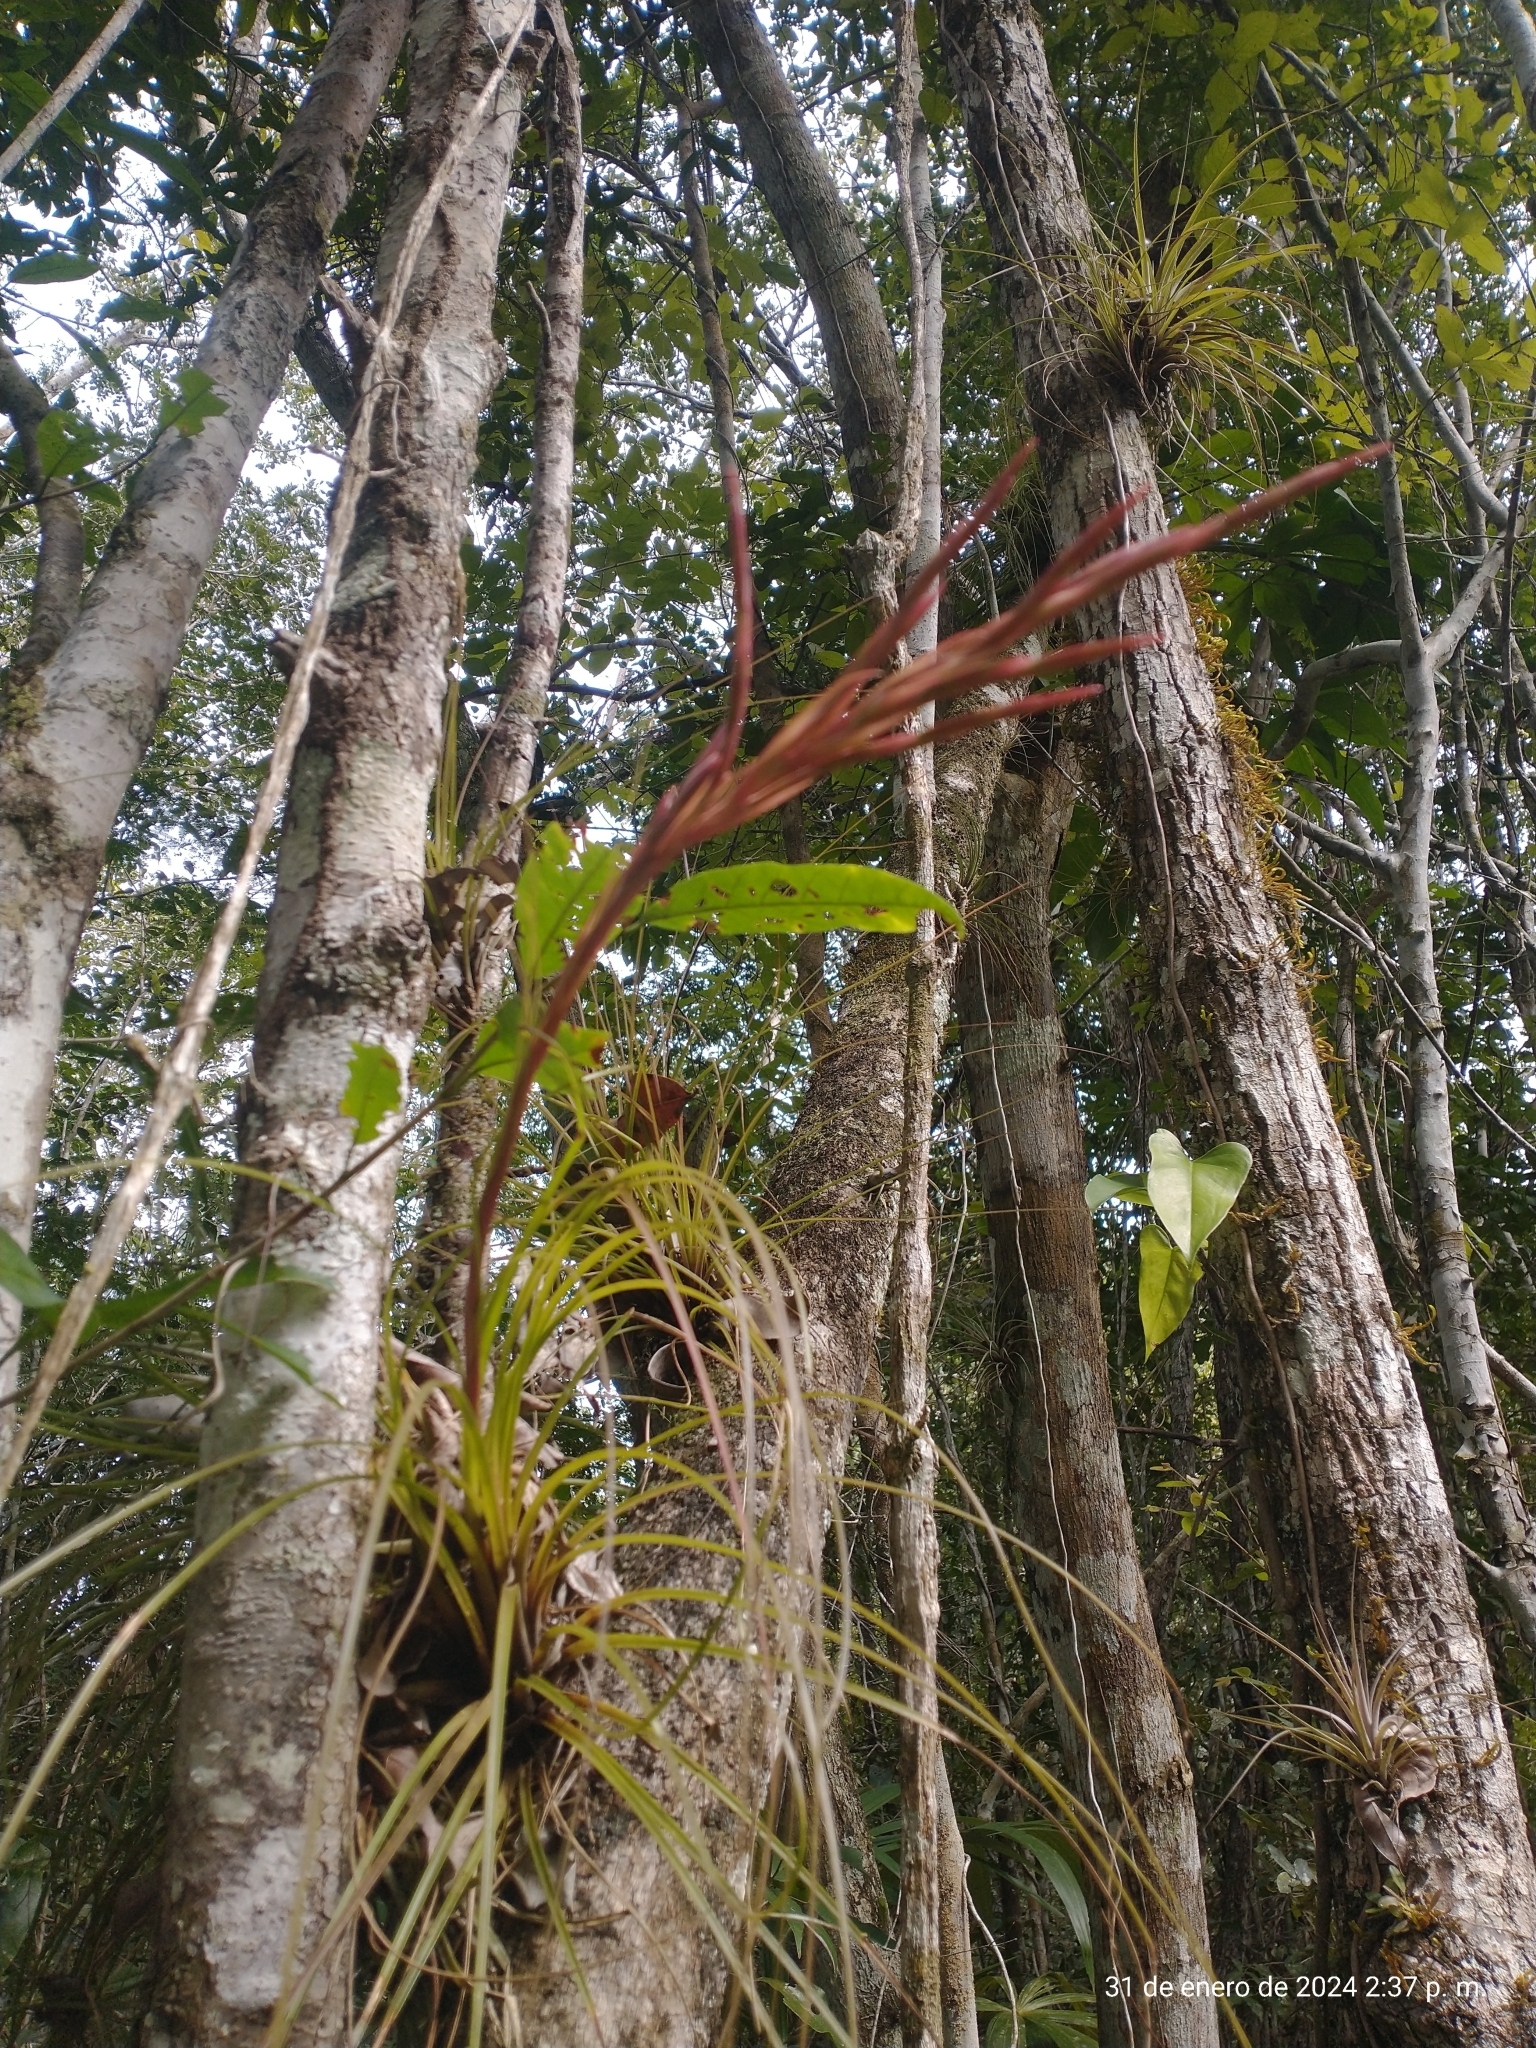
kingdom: Plantae
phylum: Tracheophyta
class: Liliopsida
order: Poales
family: Bromeliaceae
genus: Tillandsia
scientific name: Tillandsia festucoides
